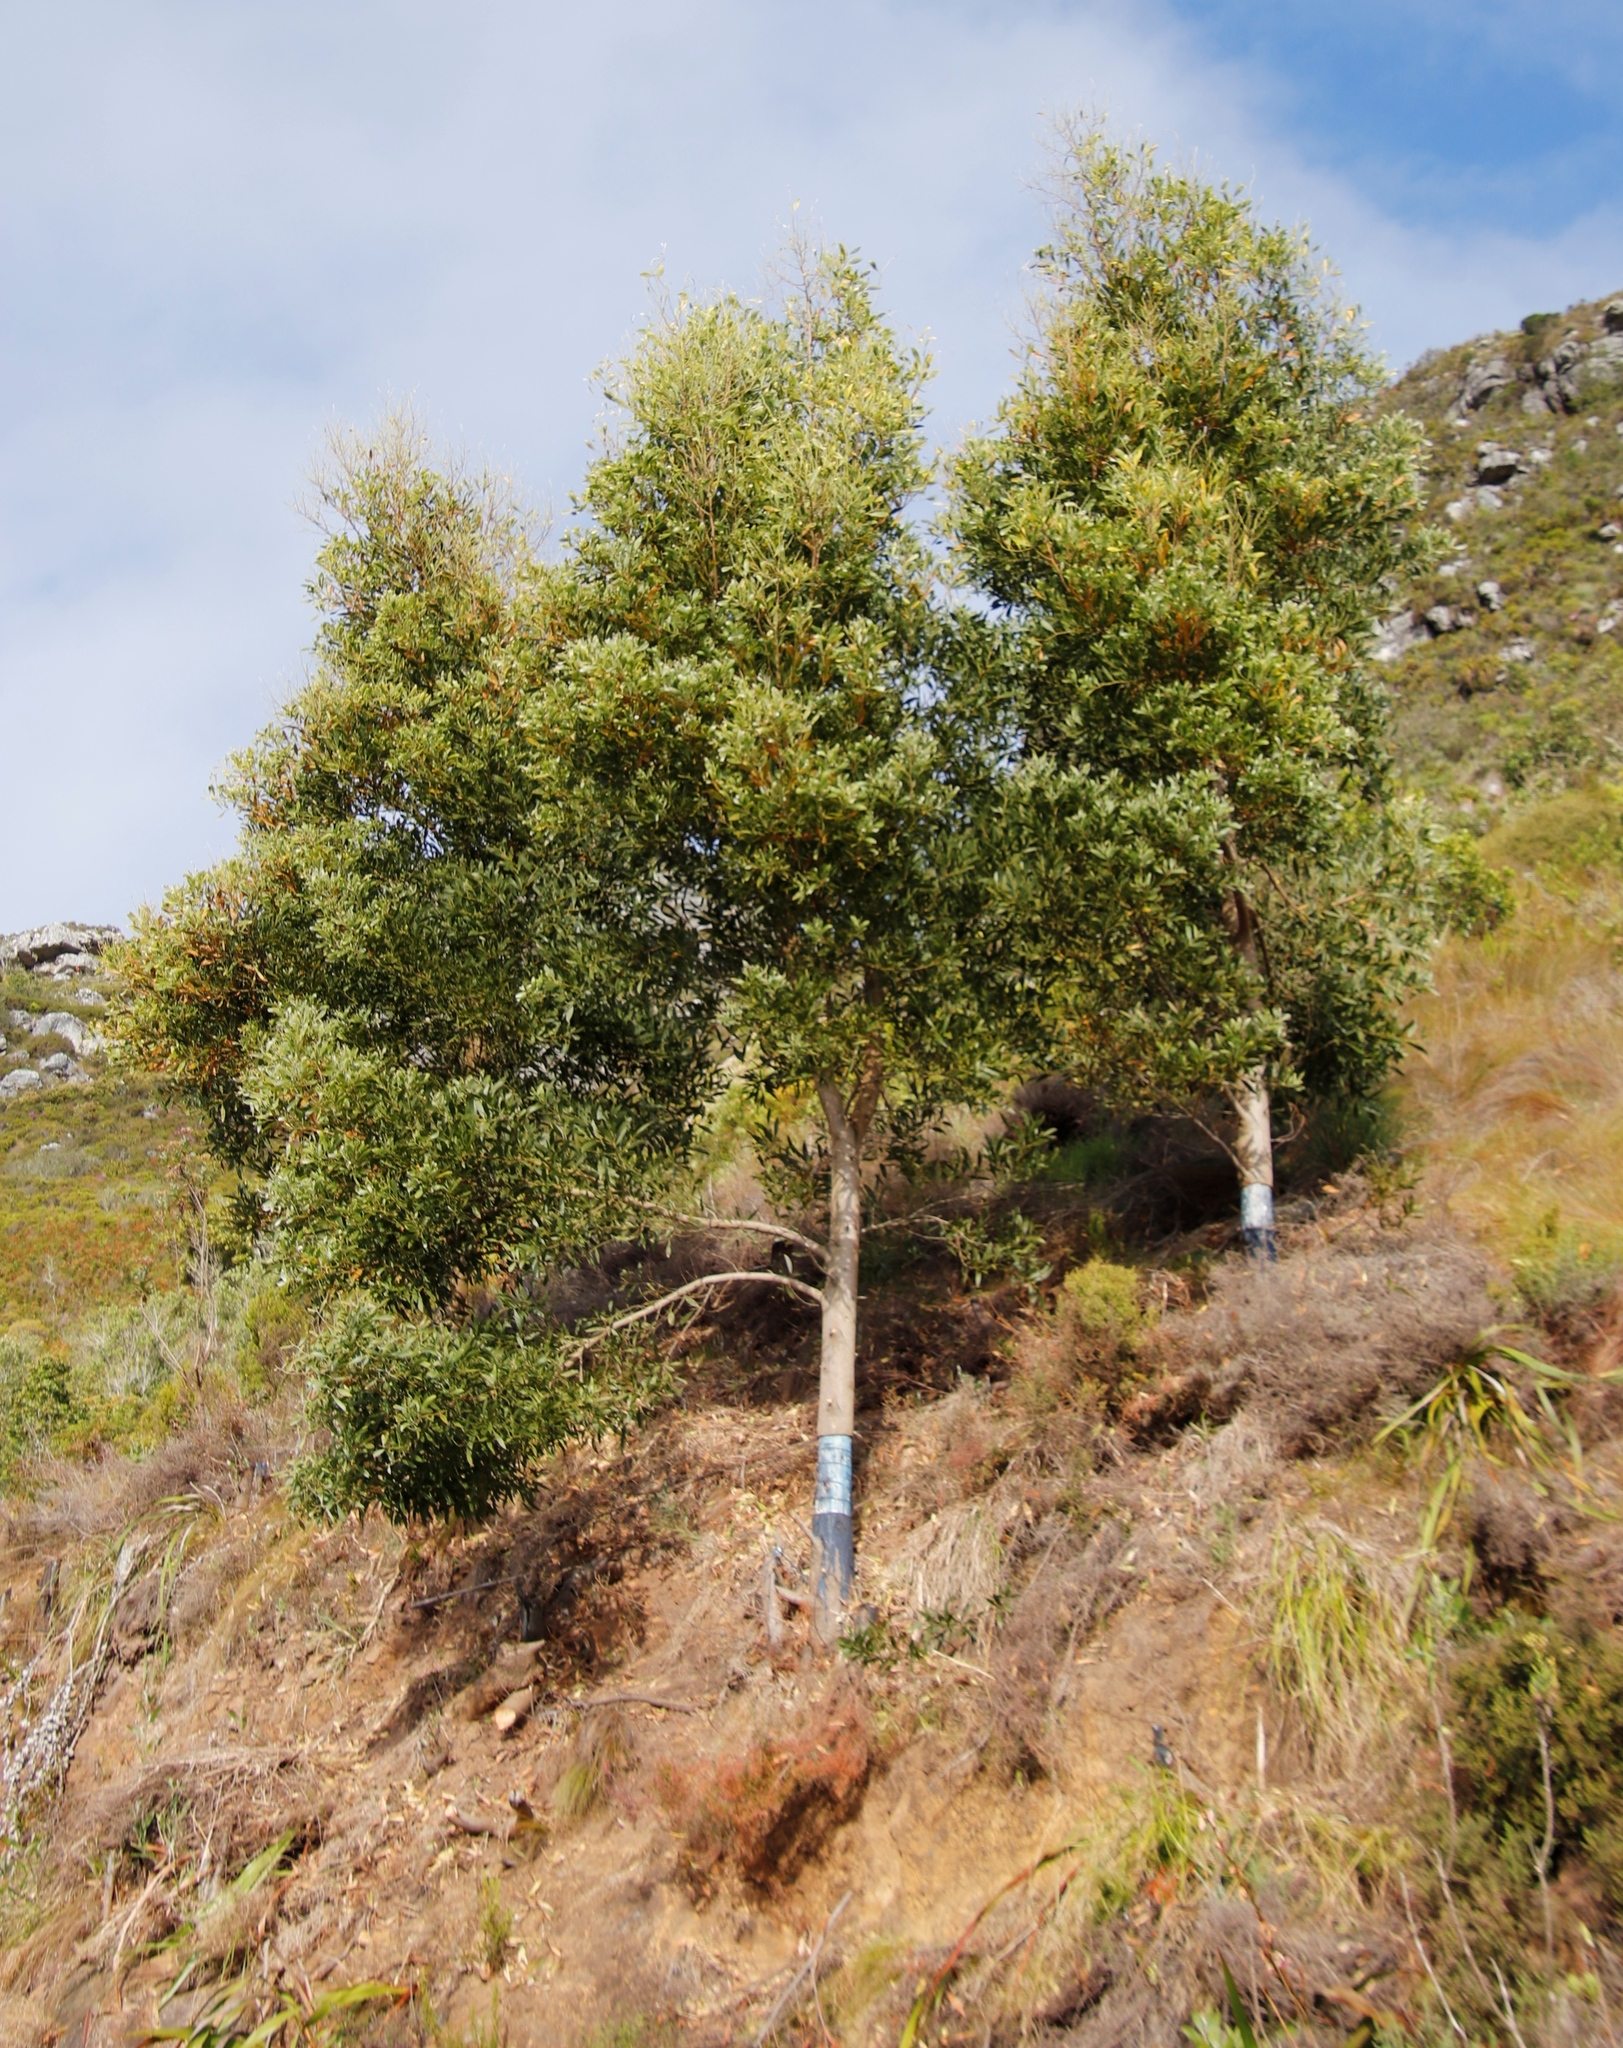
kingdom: Plantae
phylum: Tracheophyta
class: Magnoliopsida
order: Fabales
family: Fabaceae
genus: Acacia
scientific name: Acacia melanoxylon
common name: Blackwood
